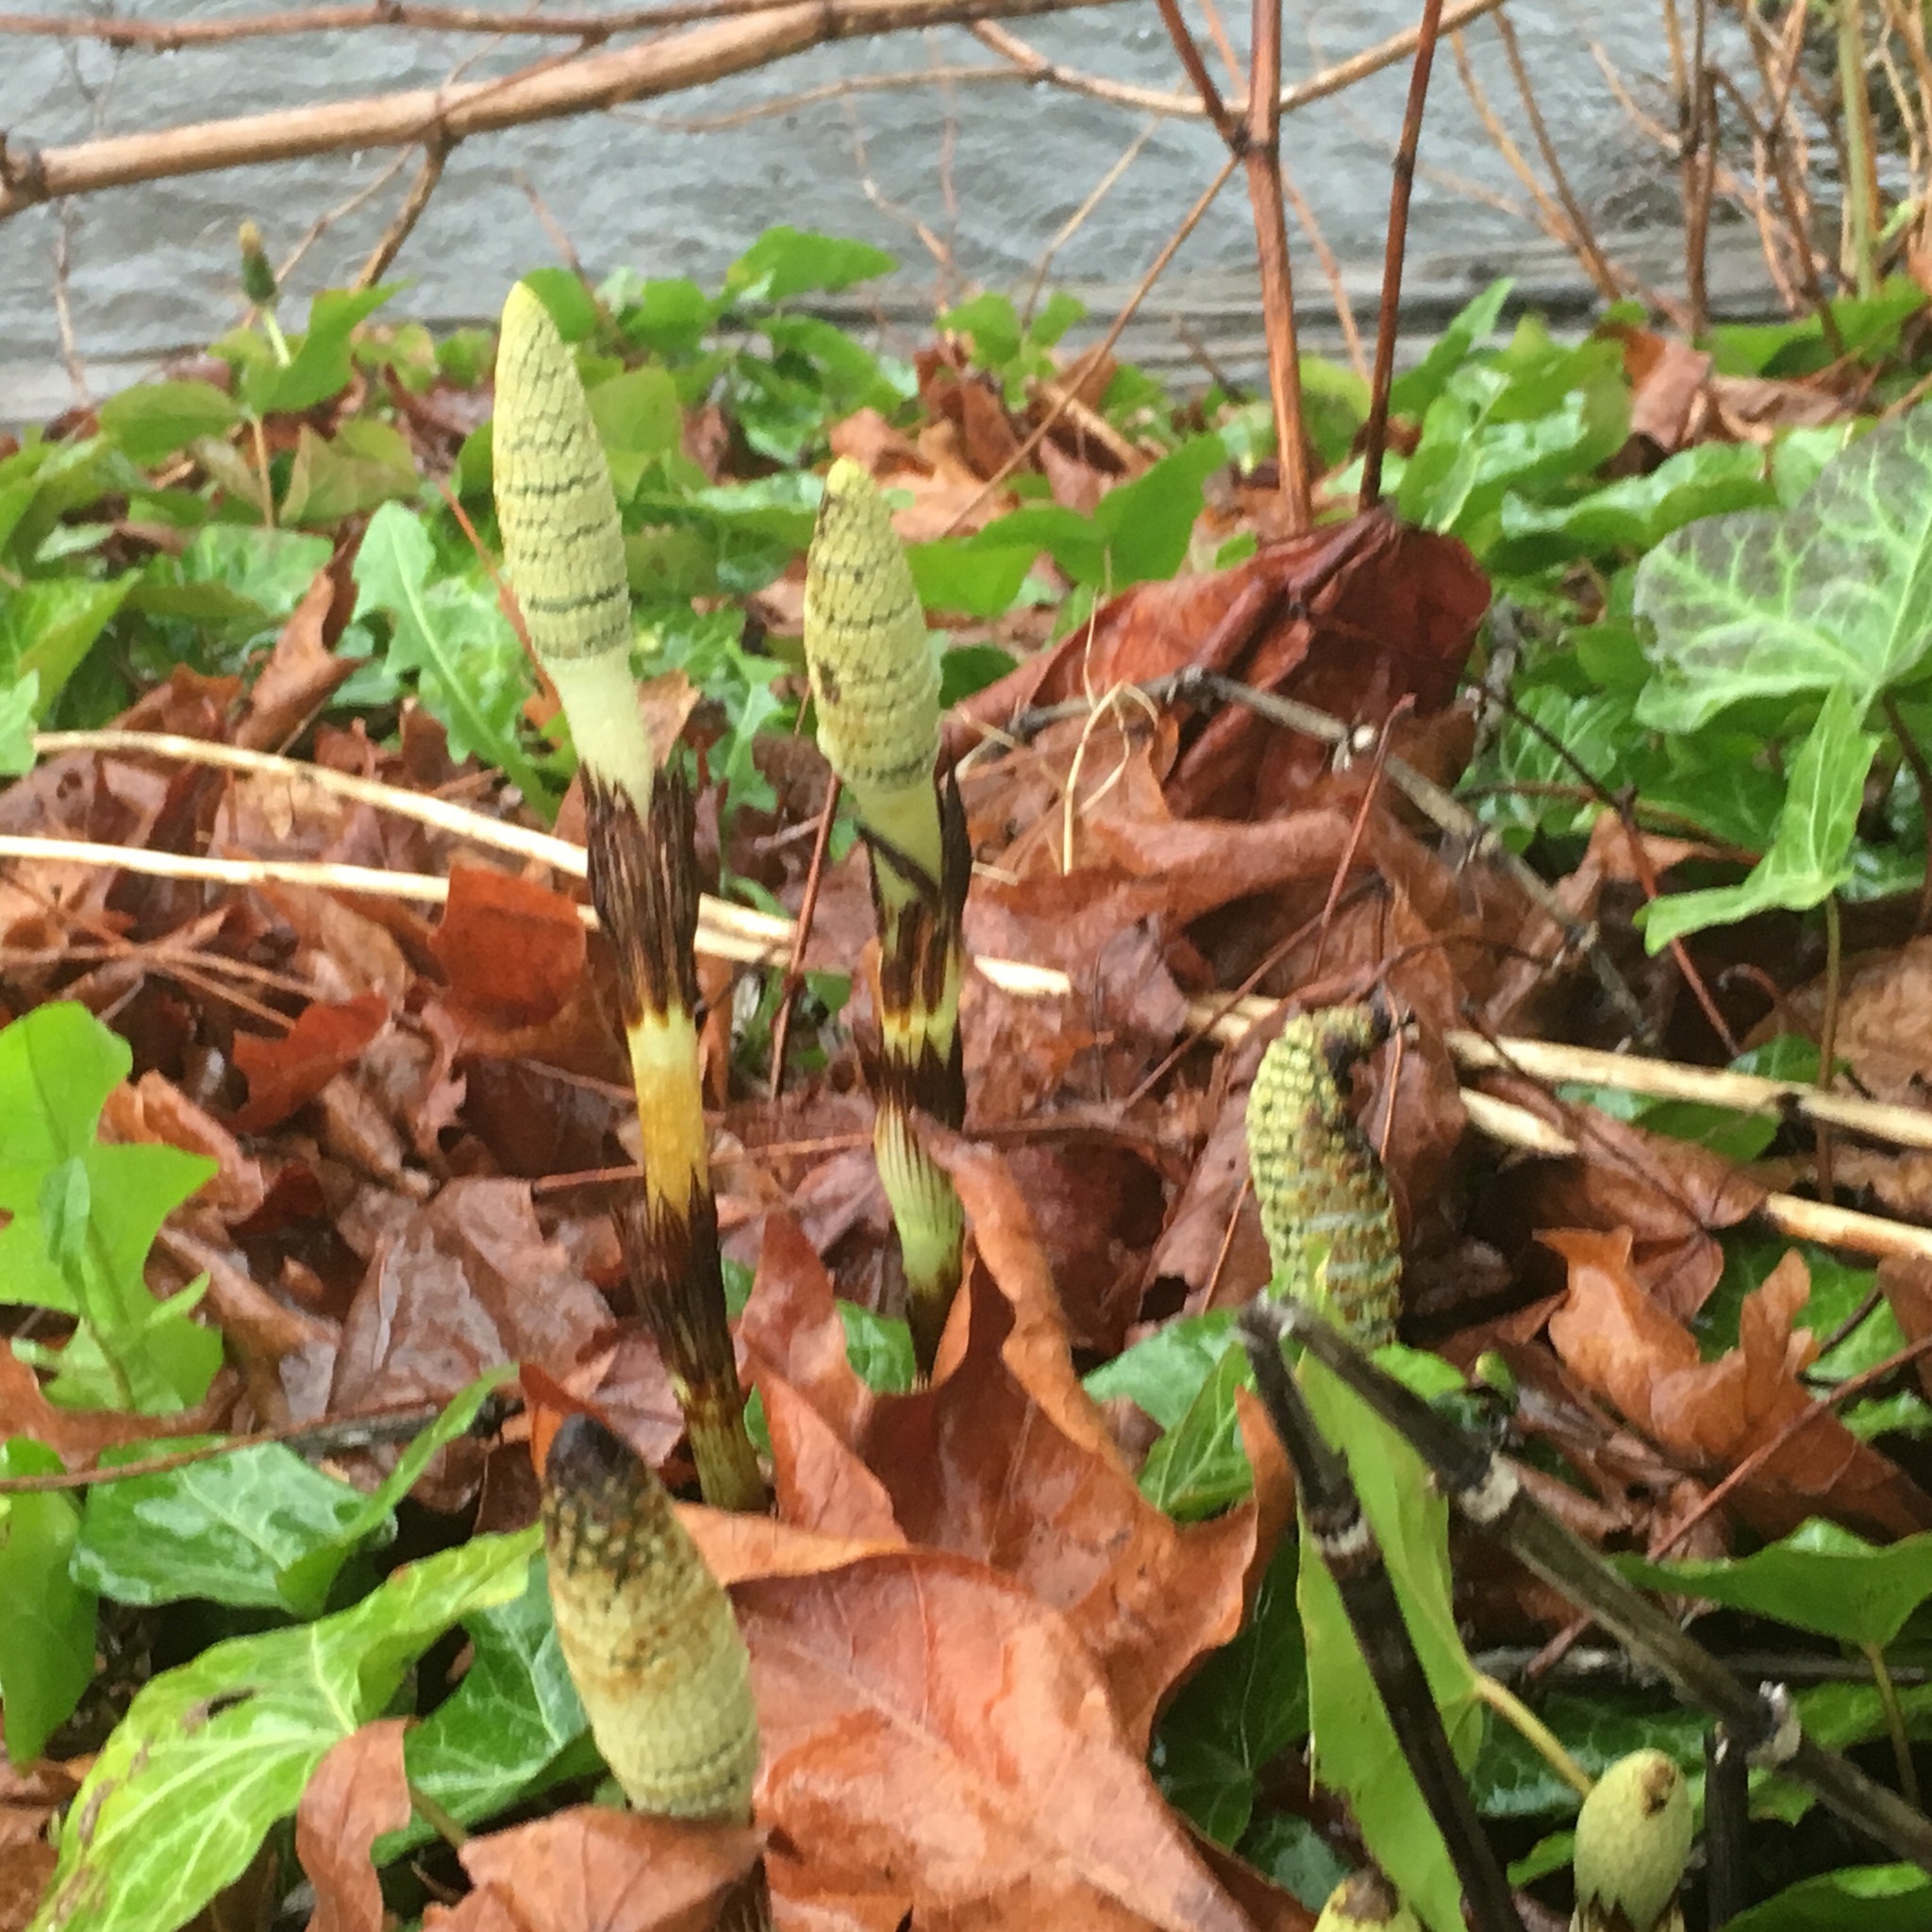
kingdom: Plantae
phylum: Tracheophyta
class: Polypodiopsida
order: Equisetales
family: Equisetaceae
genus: Equisetum
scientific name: Equisetum braunii
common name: Braun's horsetail
